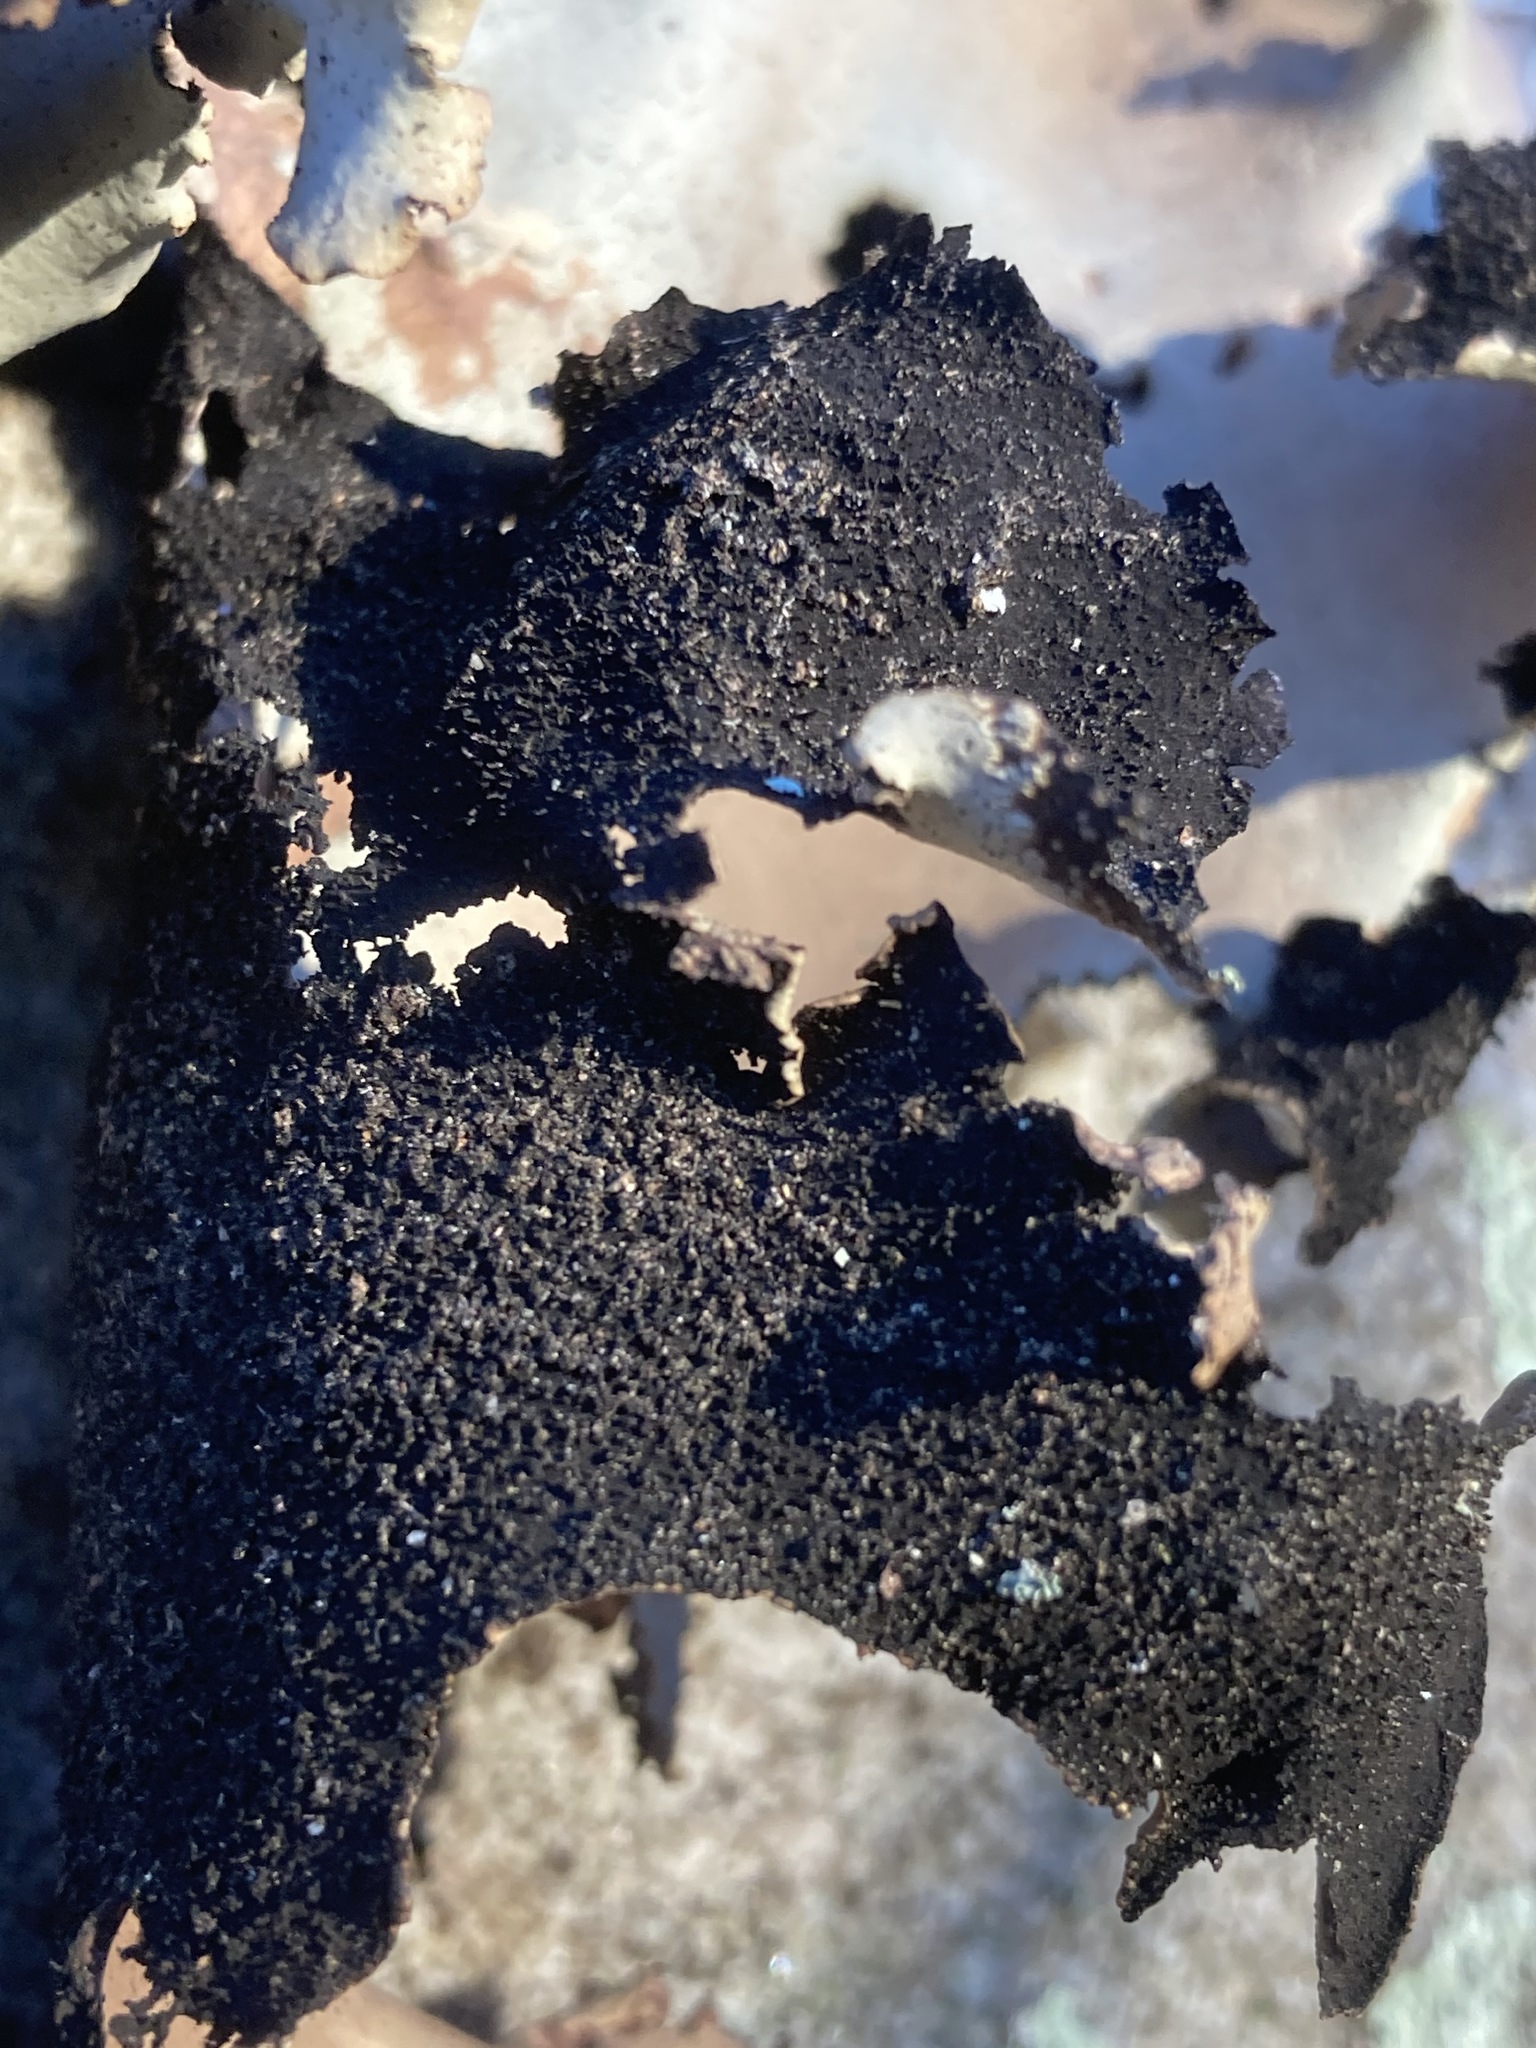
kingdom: Fungi
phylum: Ascomycota
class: Lecanoromycetes
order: Umbilicariales
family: Umbilicariaceae
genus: Umbilicaria
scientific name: Umbilicaria mammulata
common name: Smooth rock tripe
